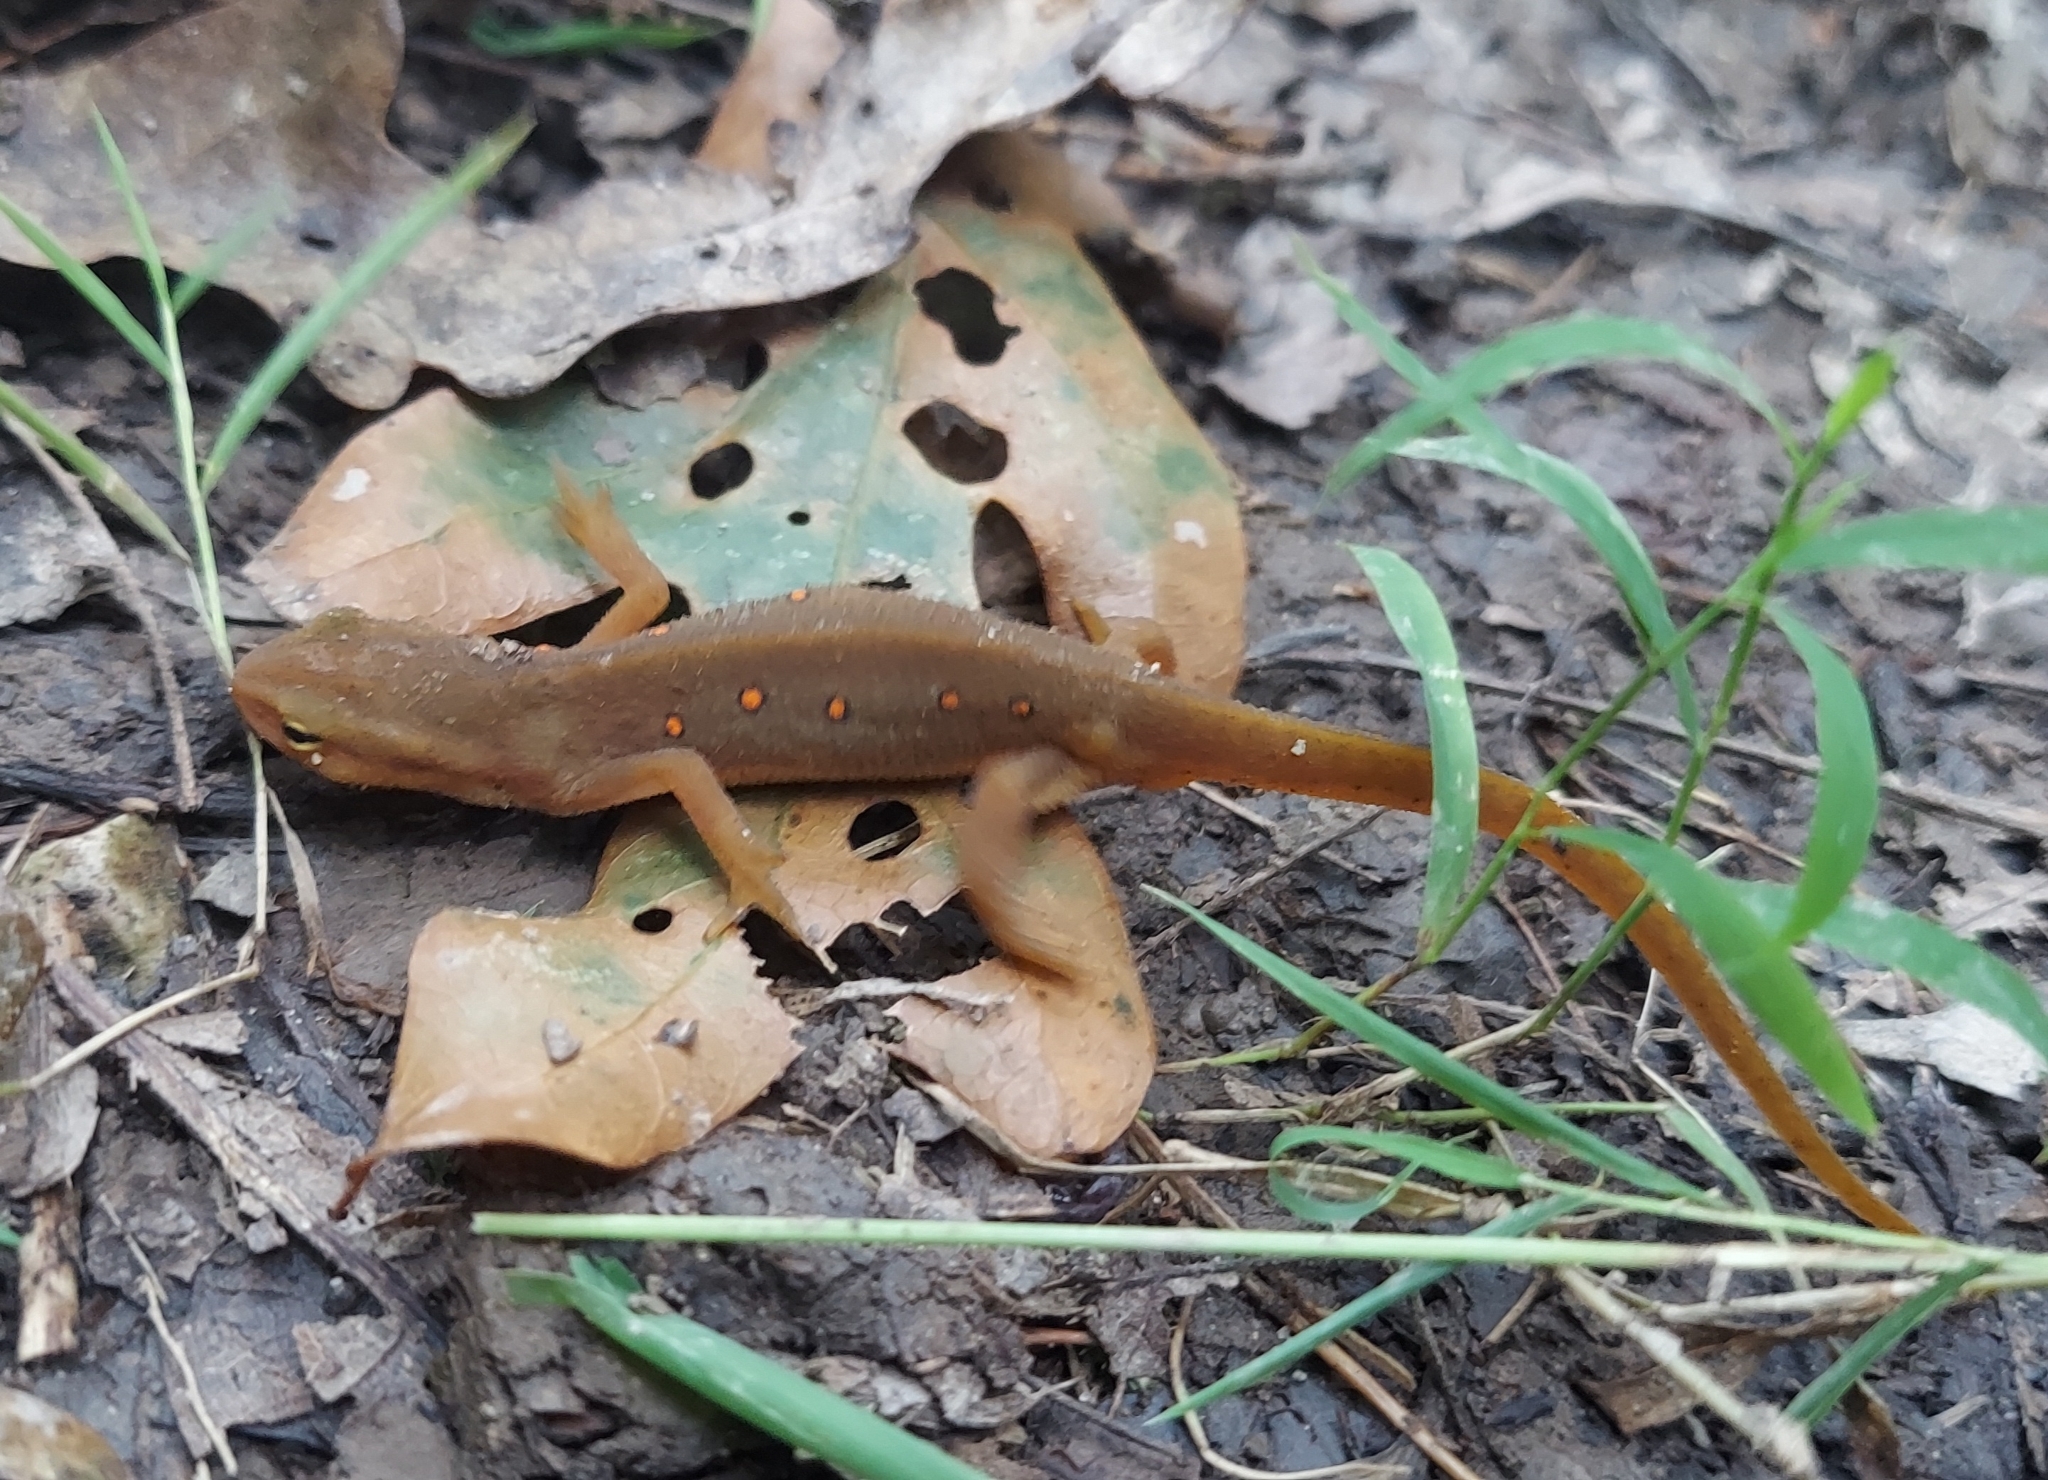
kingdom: Animalia
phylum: Chordata
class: Amphibia
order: Caudata
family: Salamandridae
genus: Notophthalmus
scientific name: Notophthalmus viridescens
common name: Eastern newt
